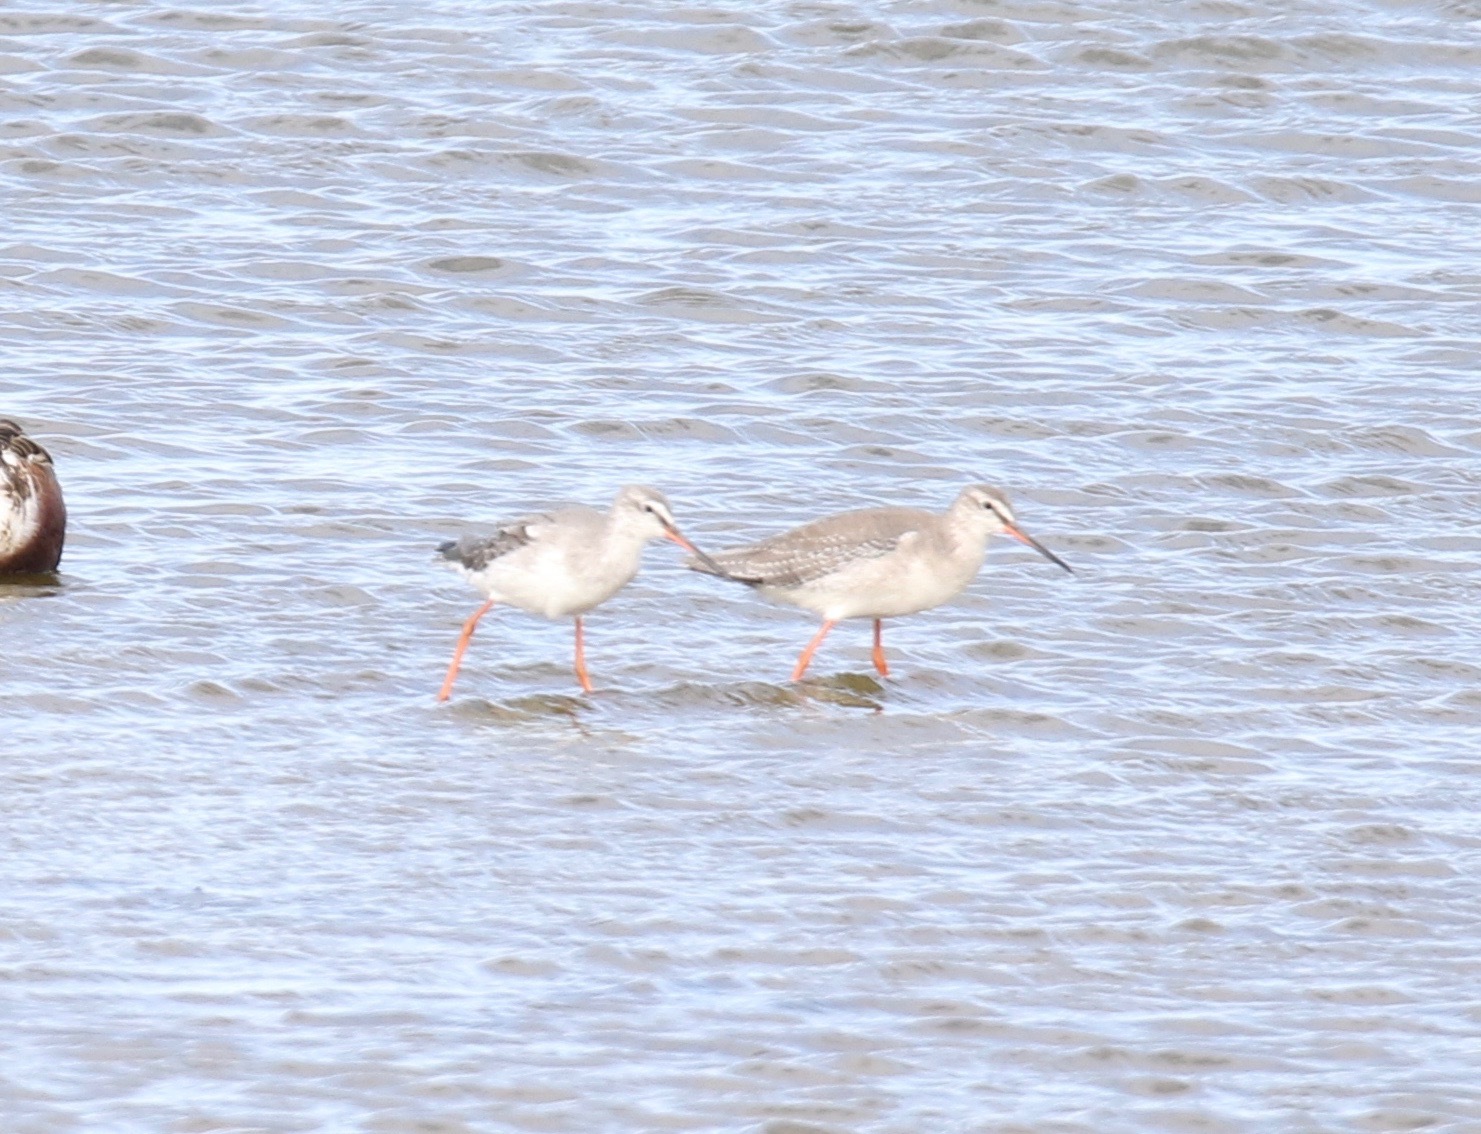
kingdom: Animalia
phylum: Chordata
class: Aves
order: Charadriiformes
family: Scolopacidae
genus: Tringa
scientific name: Tringa erythropus
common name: Spotted redshank
